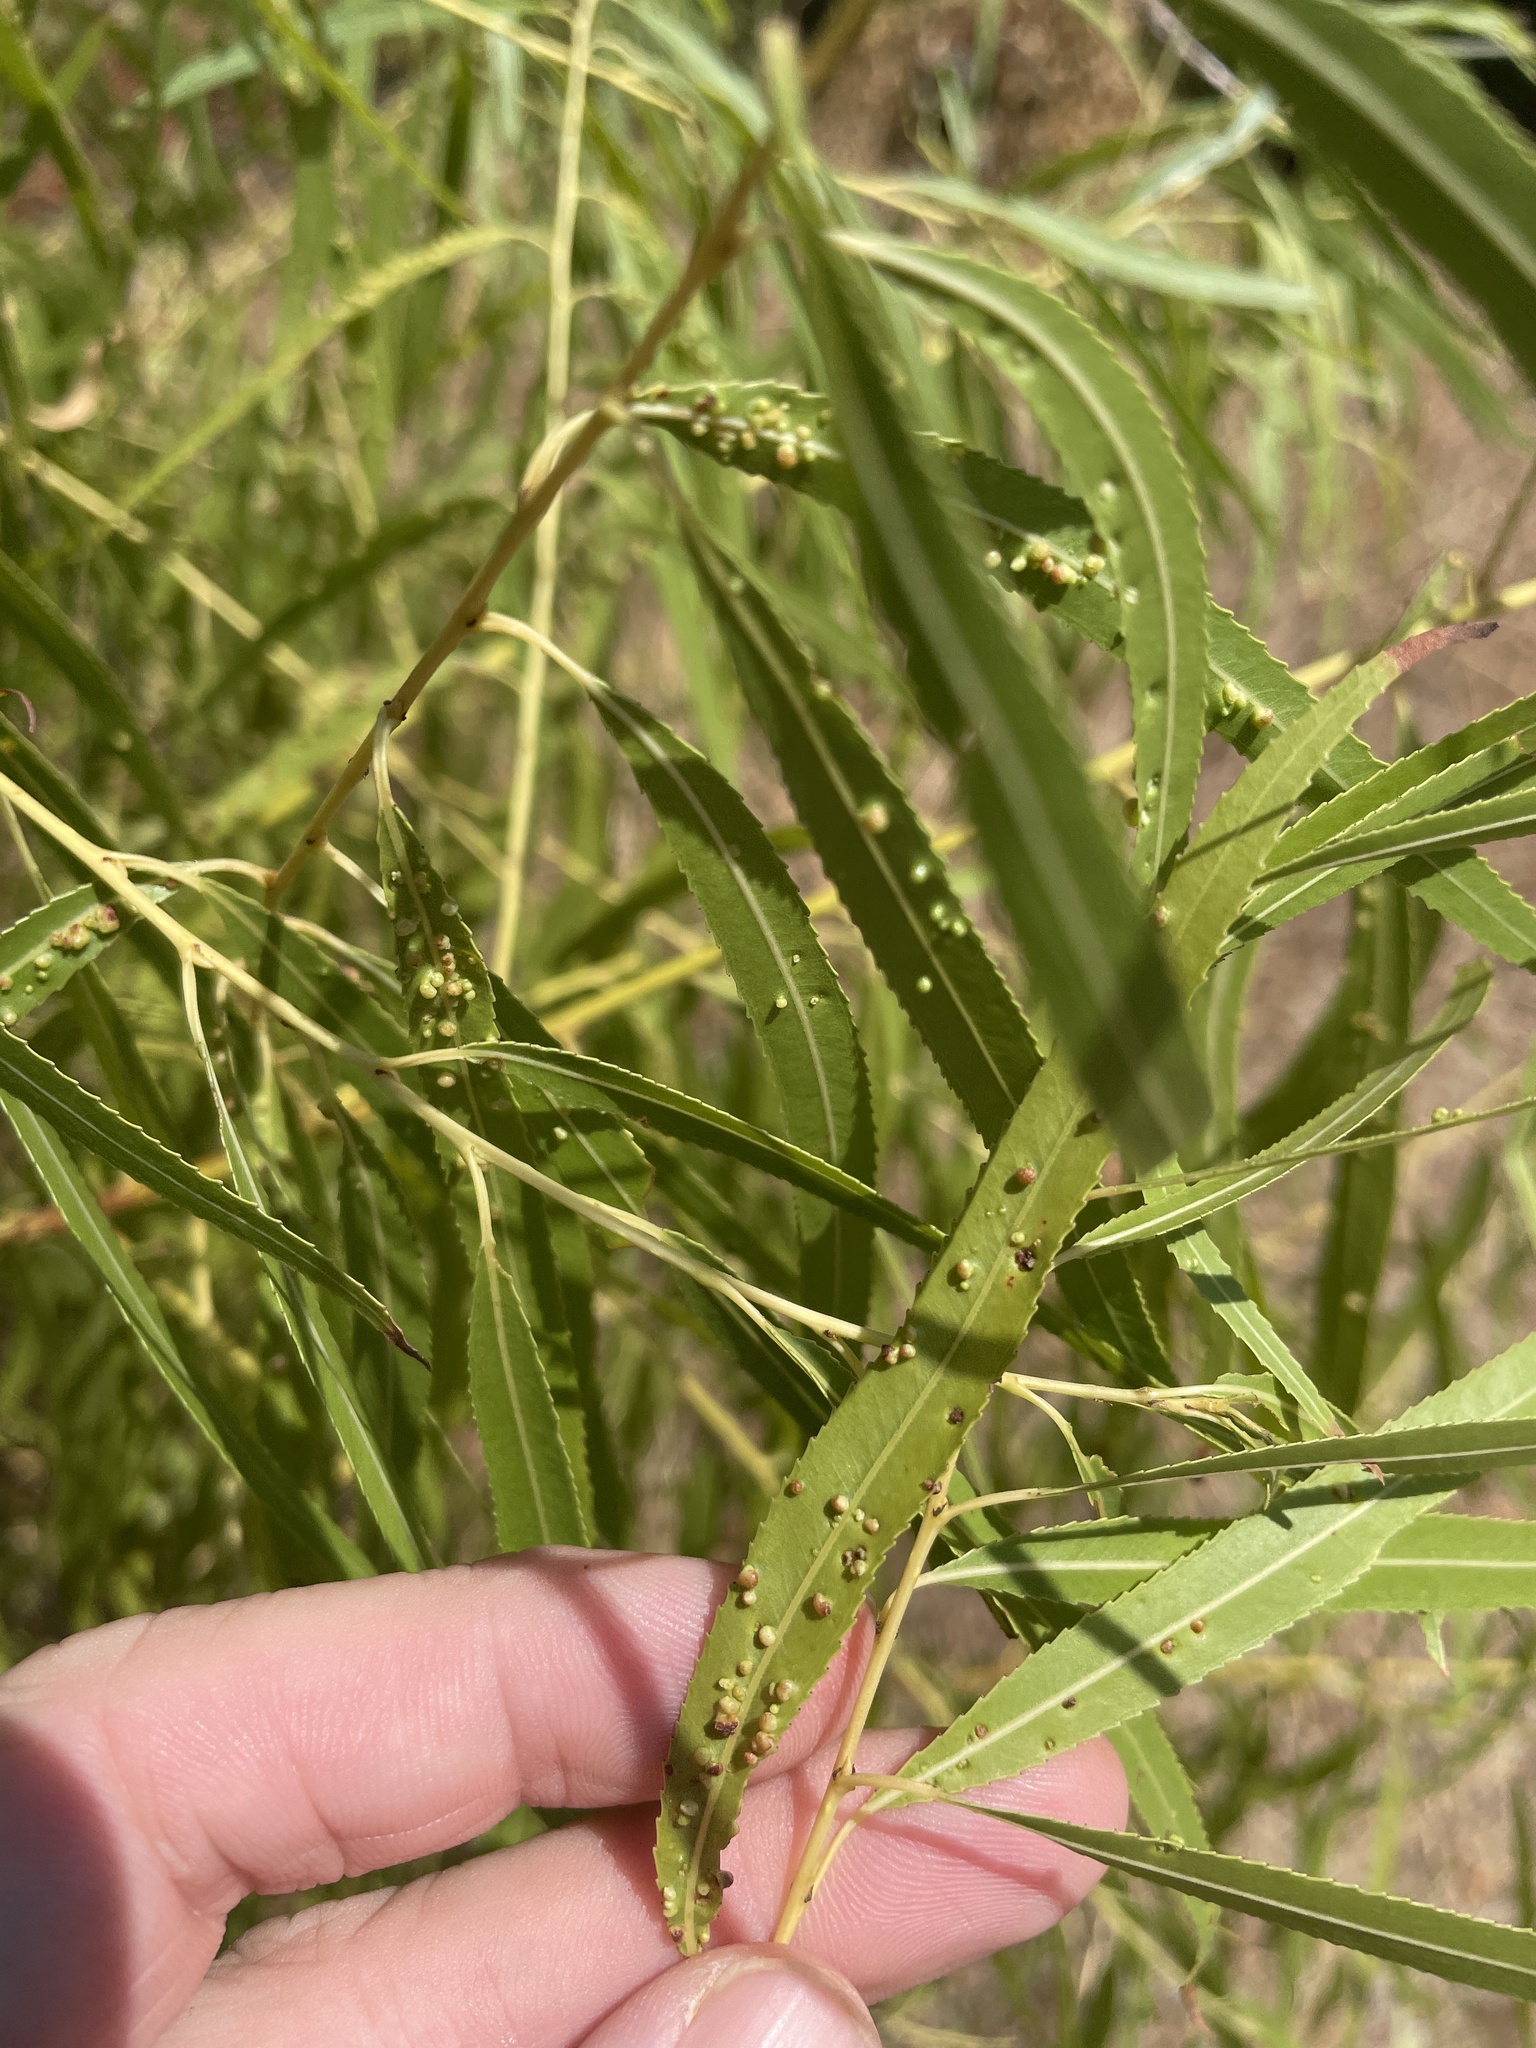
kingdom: Animalia
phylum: Arthropoda
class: Arachnida
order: Trombidiformes
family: Eriophyidae
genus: Aculus
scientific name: Aculus tetanothrix
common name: Willow bead gall mite
